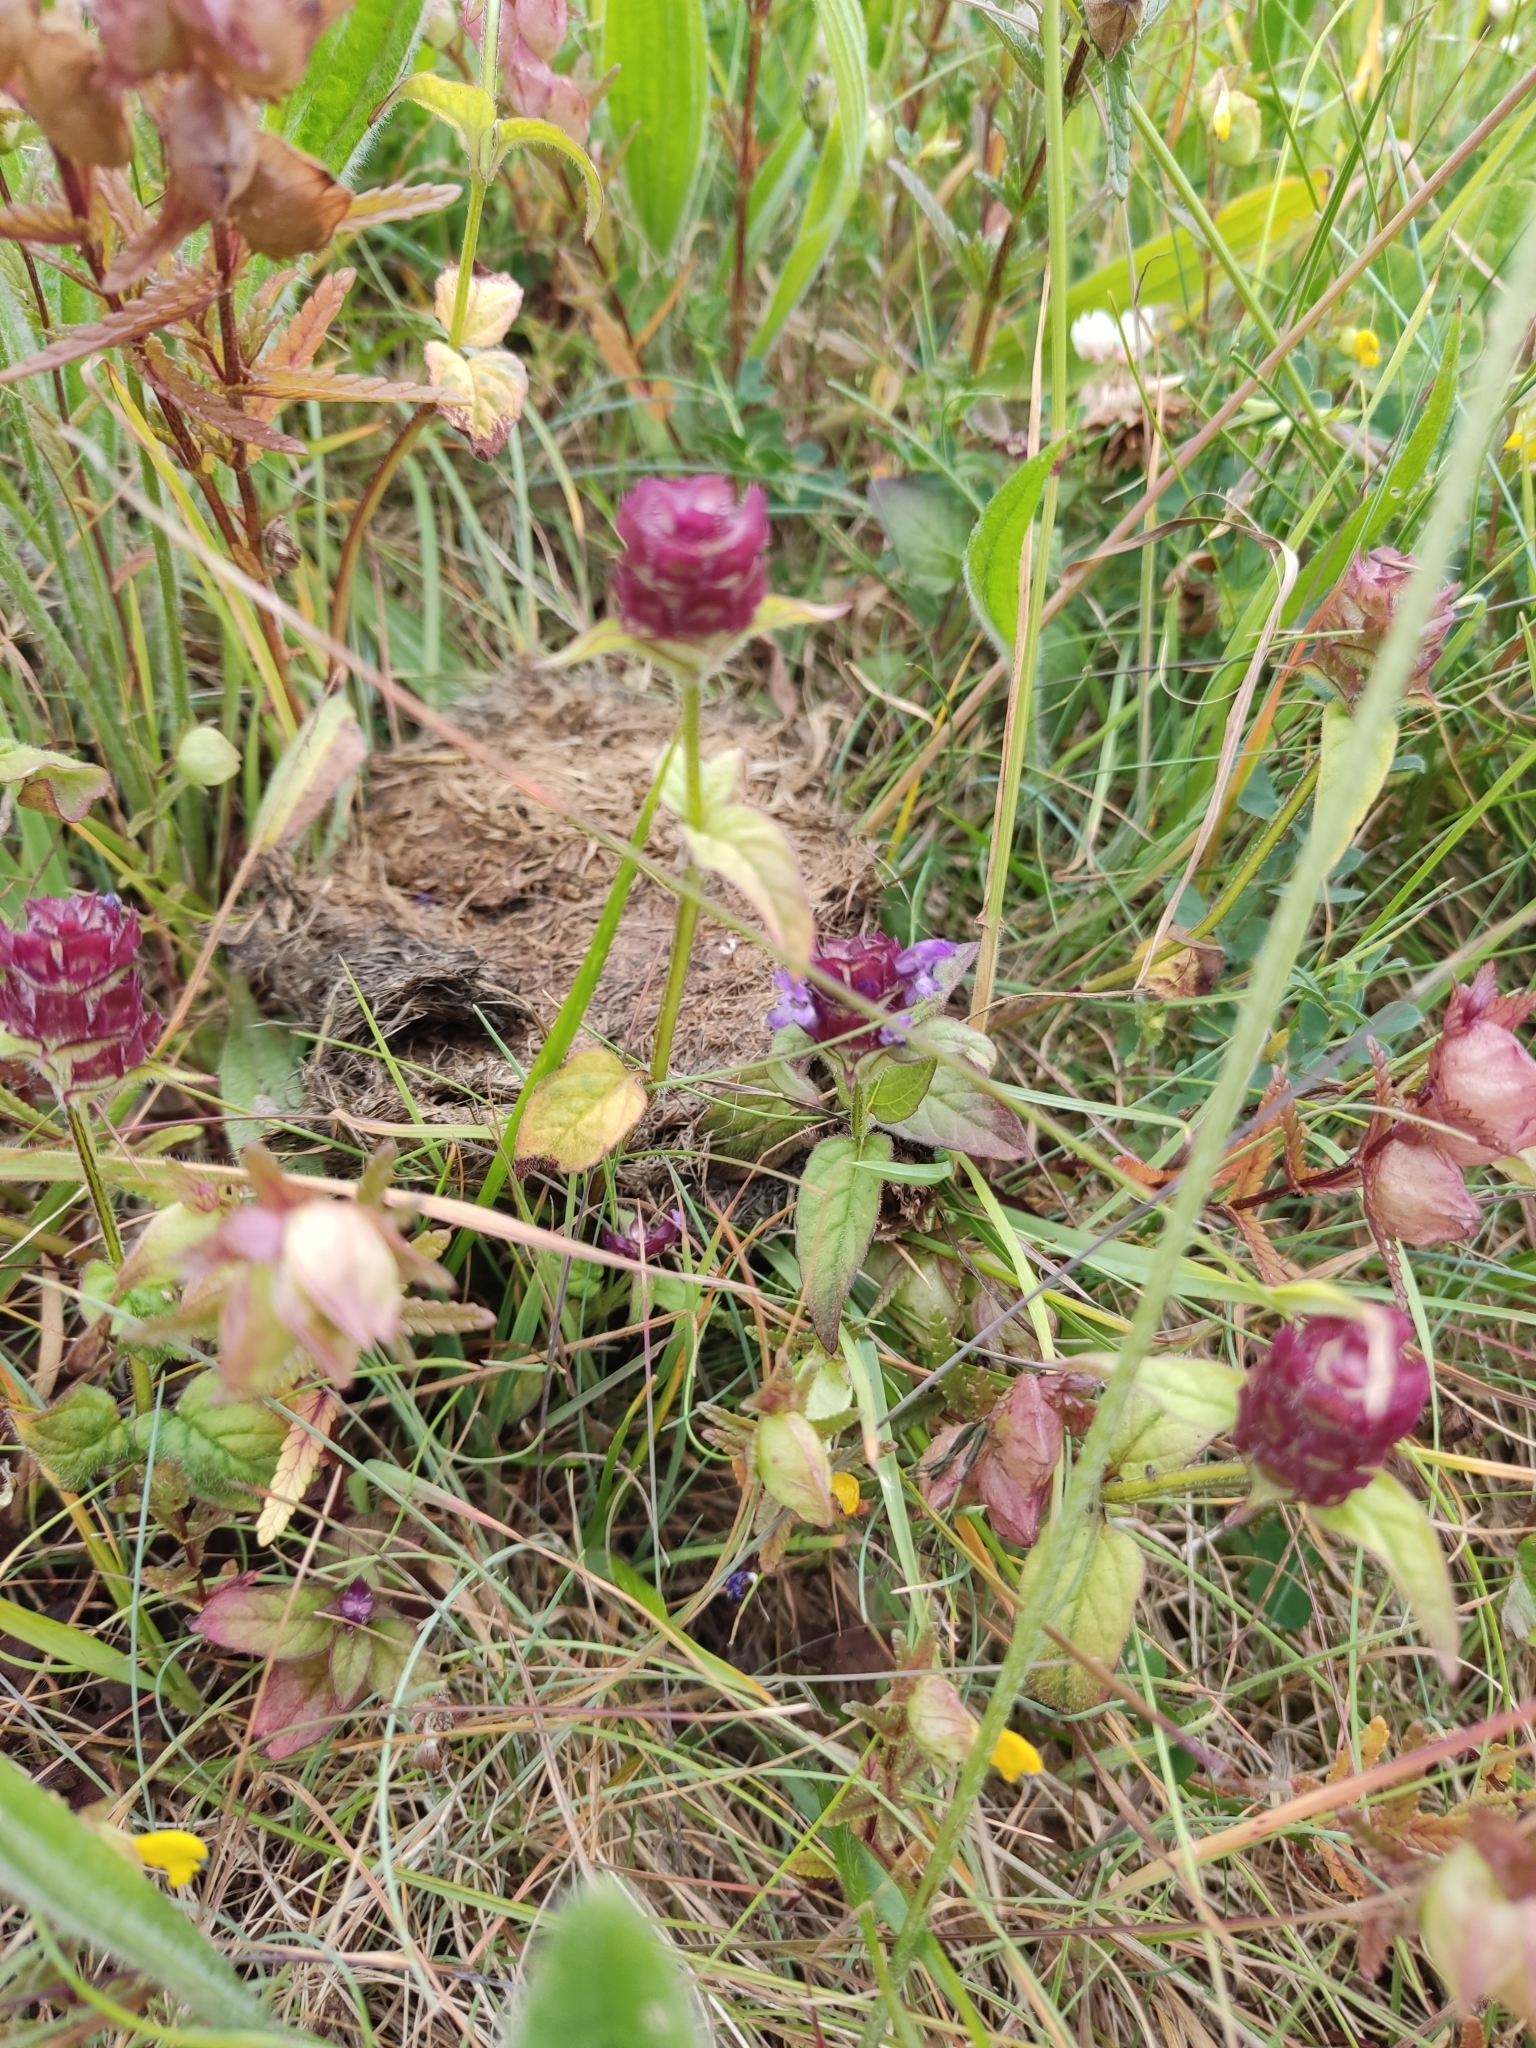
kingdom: Plantae
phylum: Tracheophyta
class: Magnoliopsida
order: Lamiales
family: Lamiaceae
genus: Prunella
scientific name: Prunella vulgaris
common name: Heal-all
